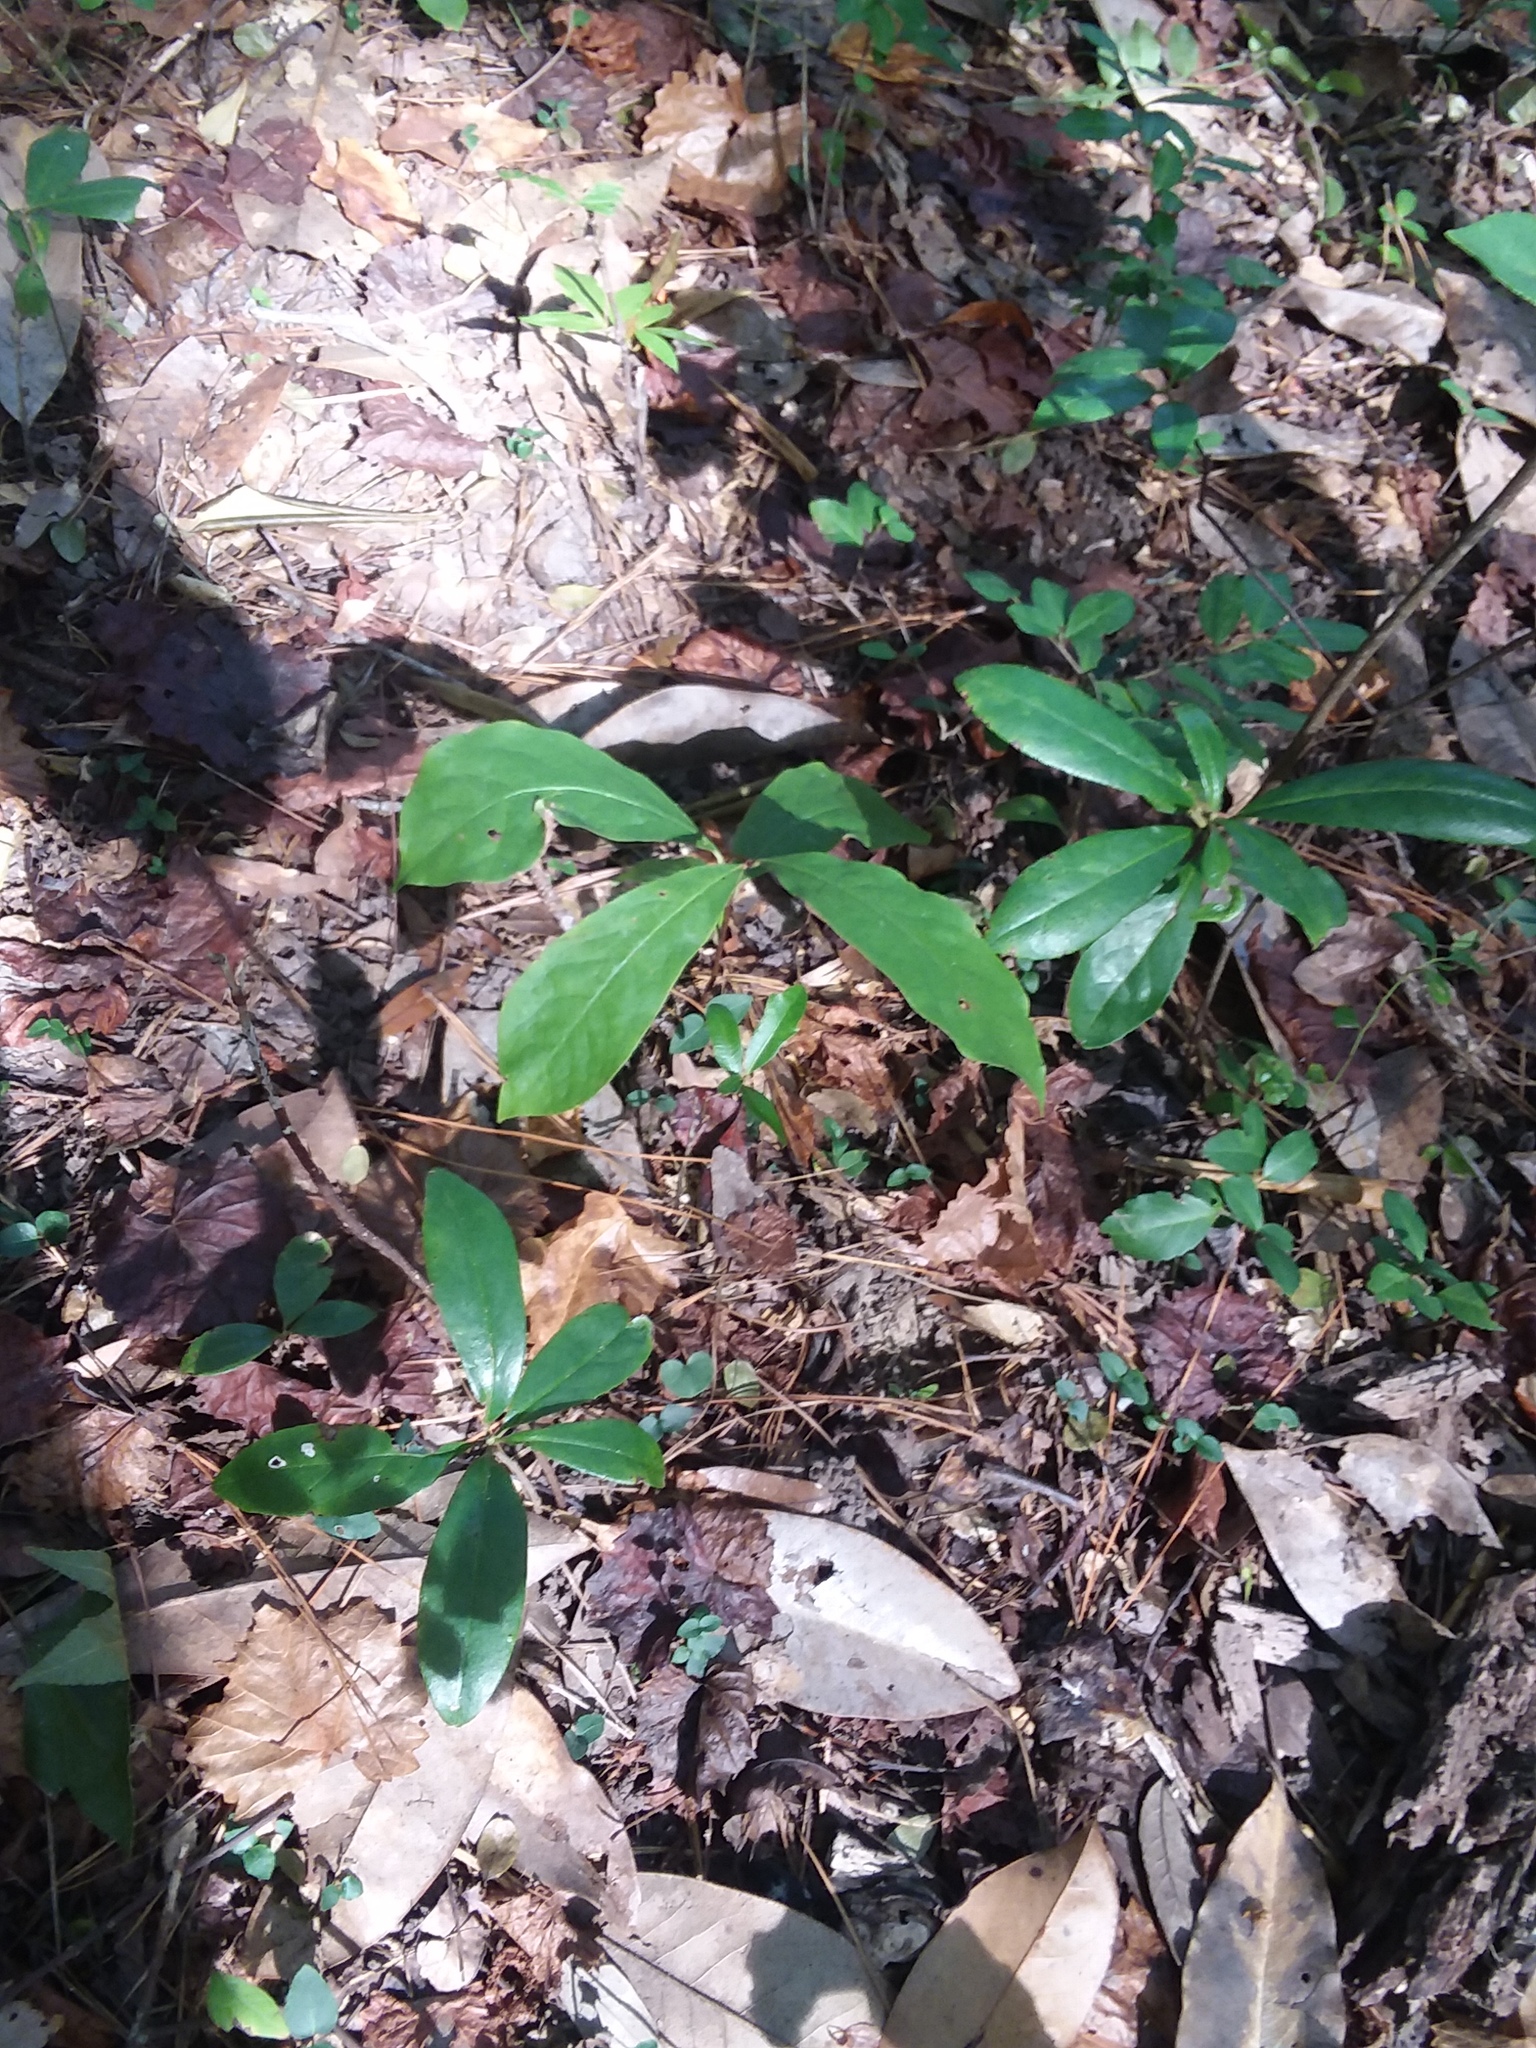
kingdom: Plantae
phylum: Tracheophyta
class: Magnoliopsida
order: Magnoliales
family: Annonaceae
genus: Asimina
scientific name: Asimina parviflora
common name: Dwarf pawpaw
